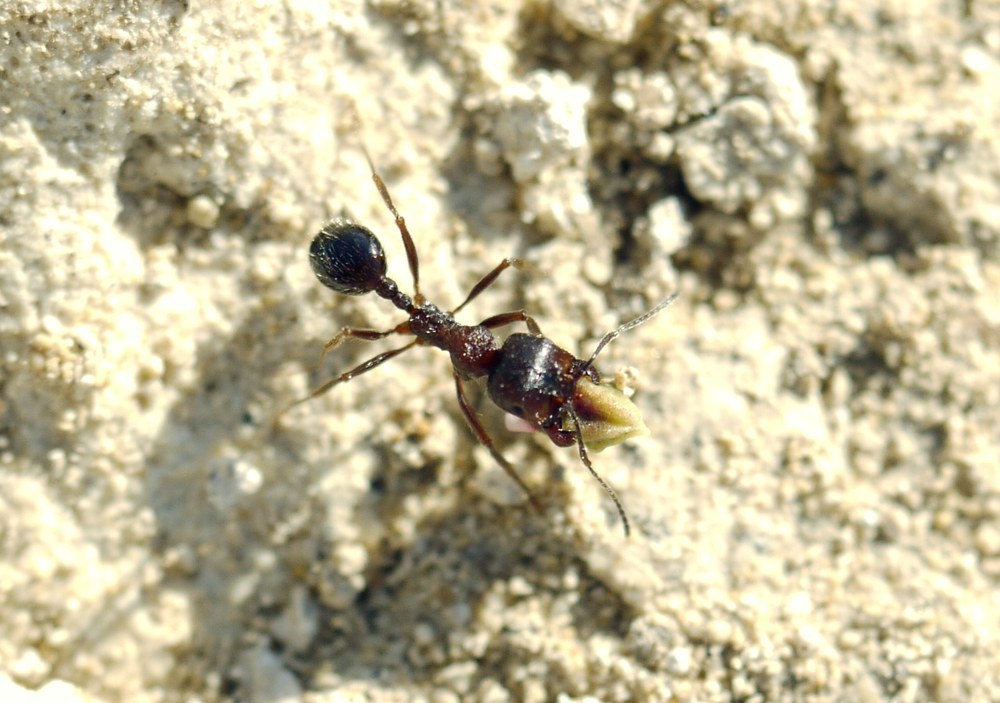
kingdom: Animalia
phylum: Arthropoda
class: Insecta
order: Hymenoptera
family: Formicidae
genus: Messor
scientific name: Messor structor
